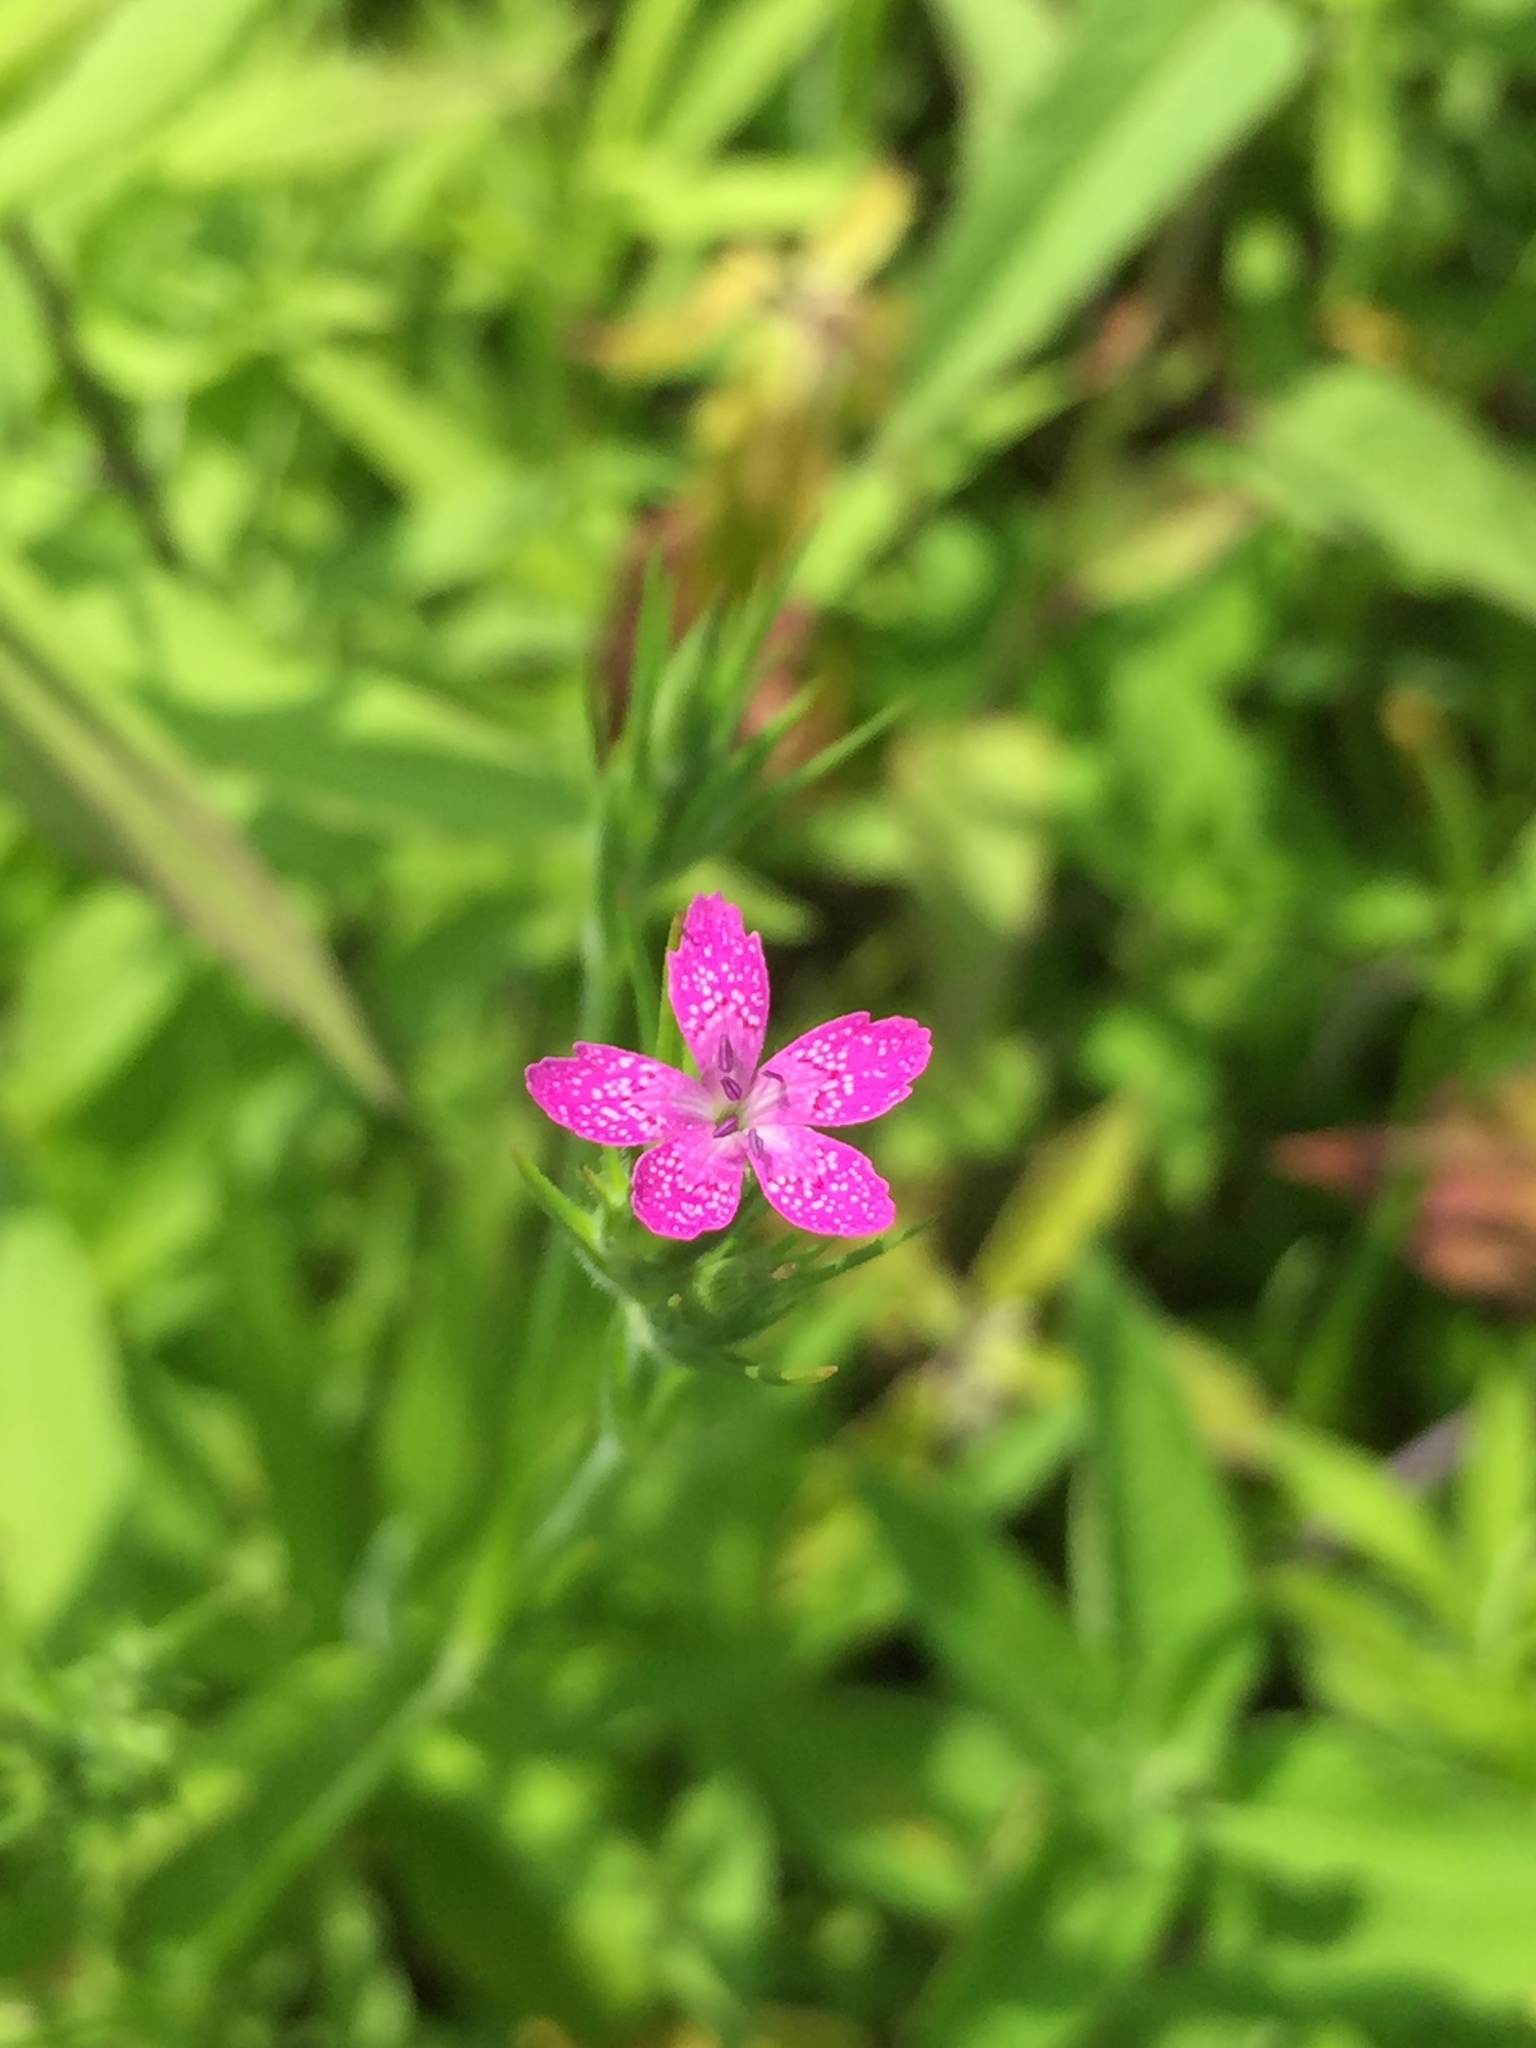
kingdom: Plantae
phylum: Tracheophyta
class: Magnoliopsida
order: Caryophyllales
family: Caryophyllaceae
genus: Dianthus
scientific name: Dianthus armeria
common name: Deptford pink
